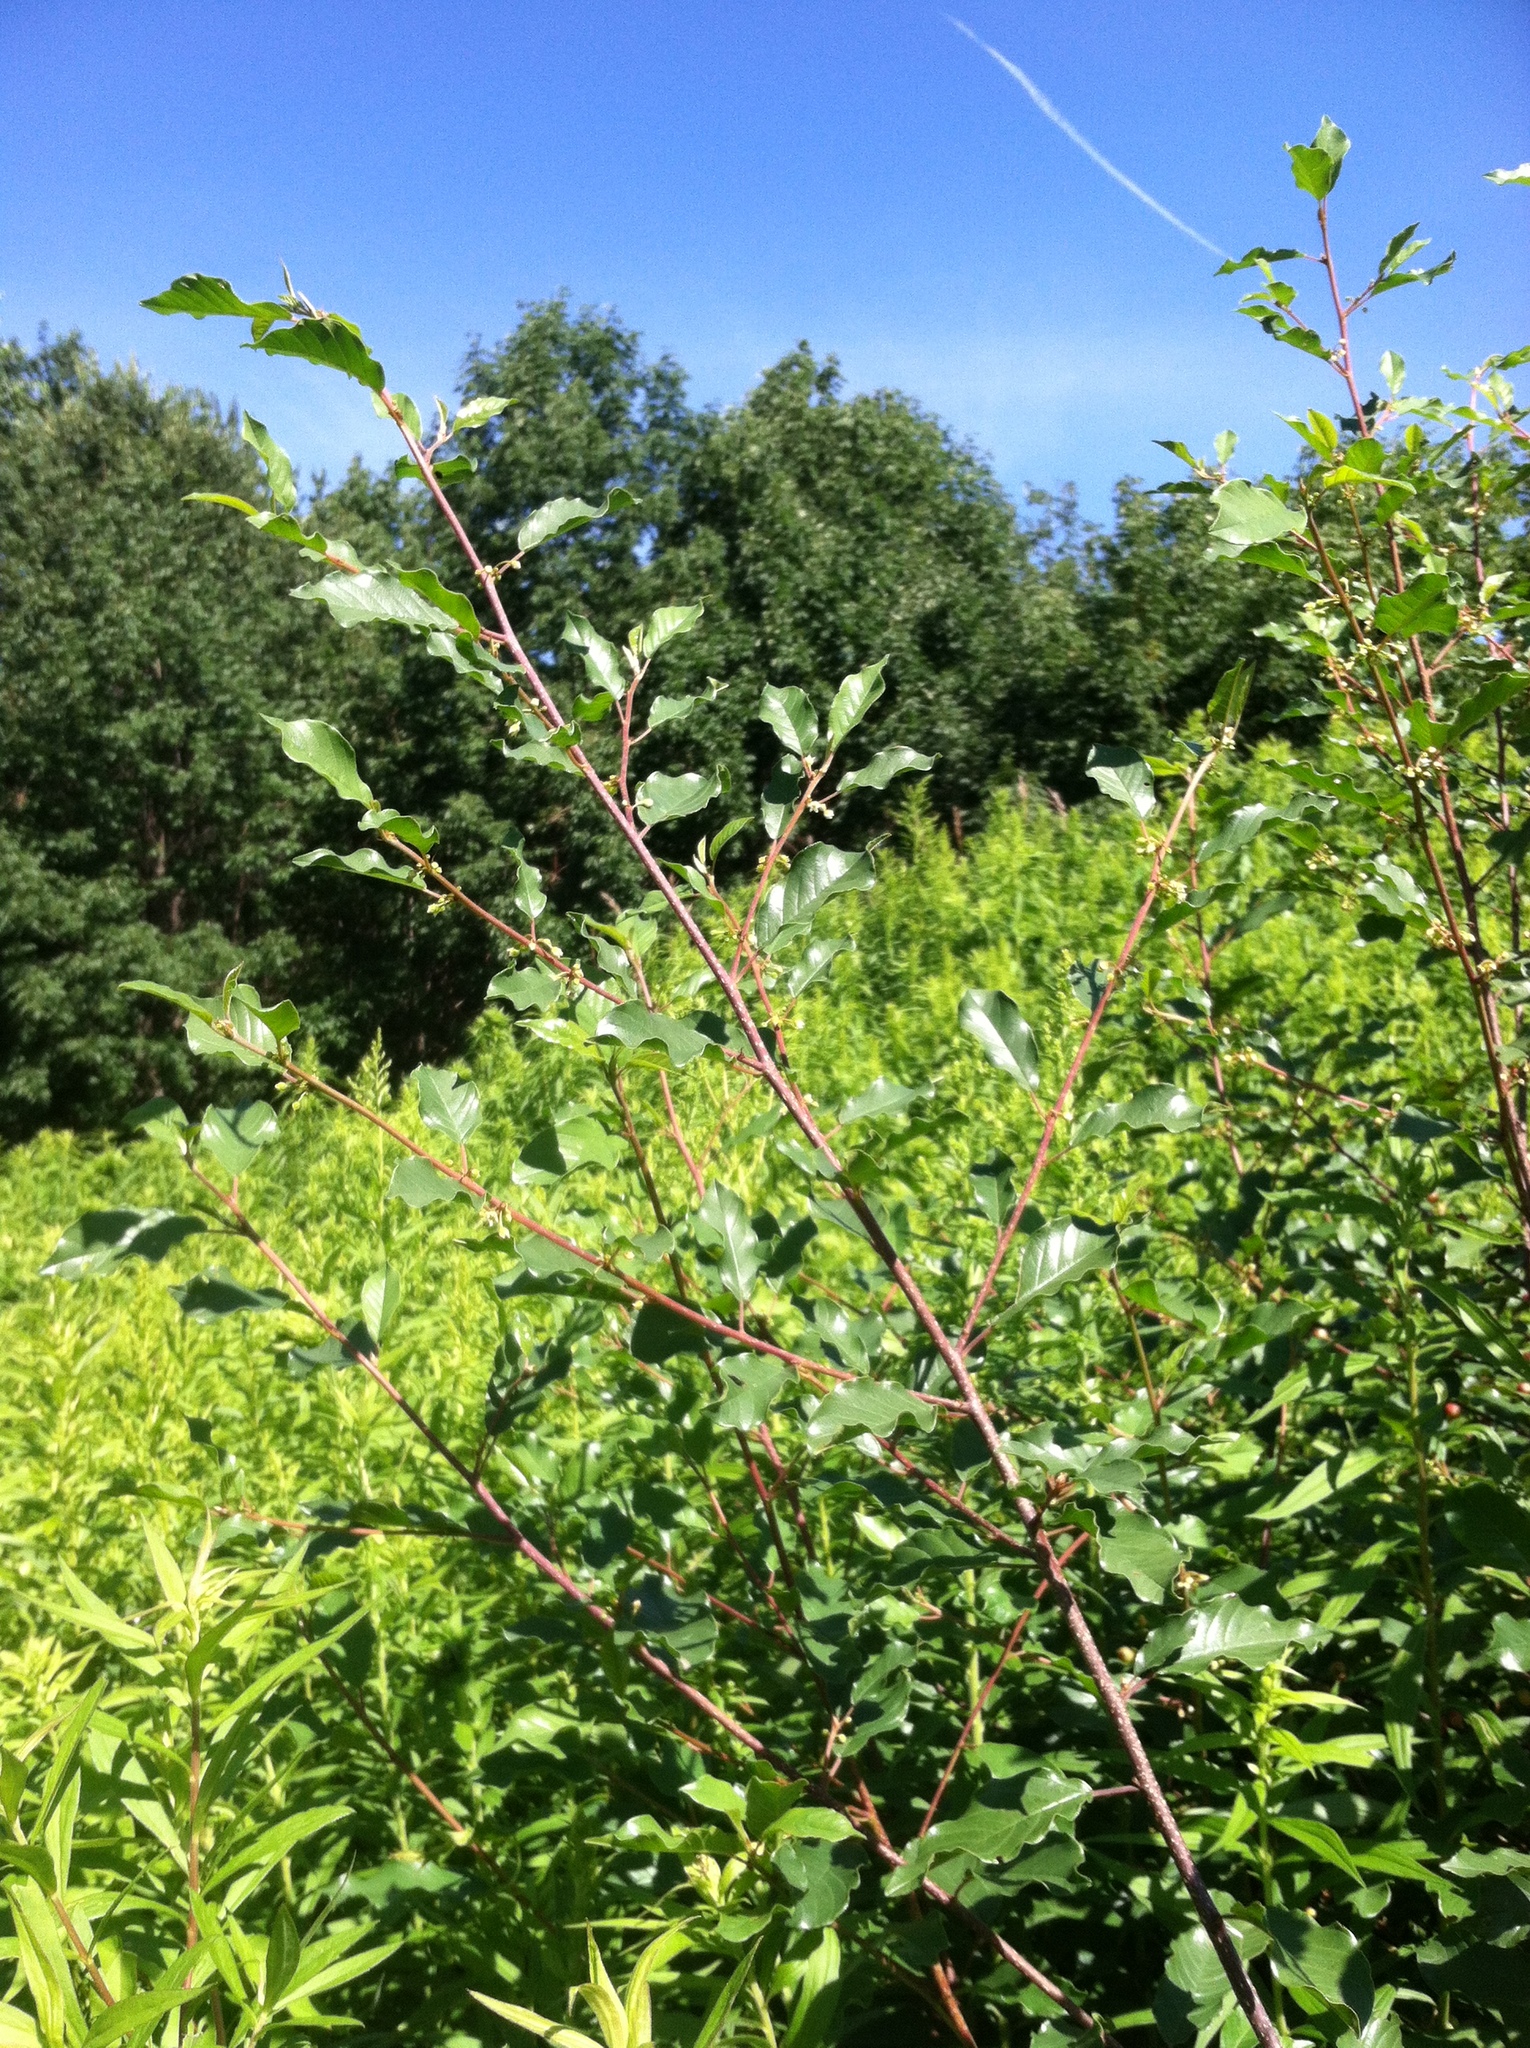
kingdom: Plantae
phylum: Tracheophyta
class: Magnoliopsida
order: Rosales
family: Rhamnaceae
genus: Frangula
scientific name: Frangula alnus
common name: Alder buckthorn
